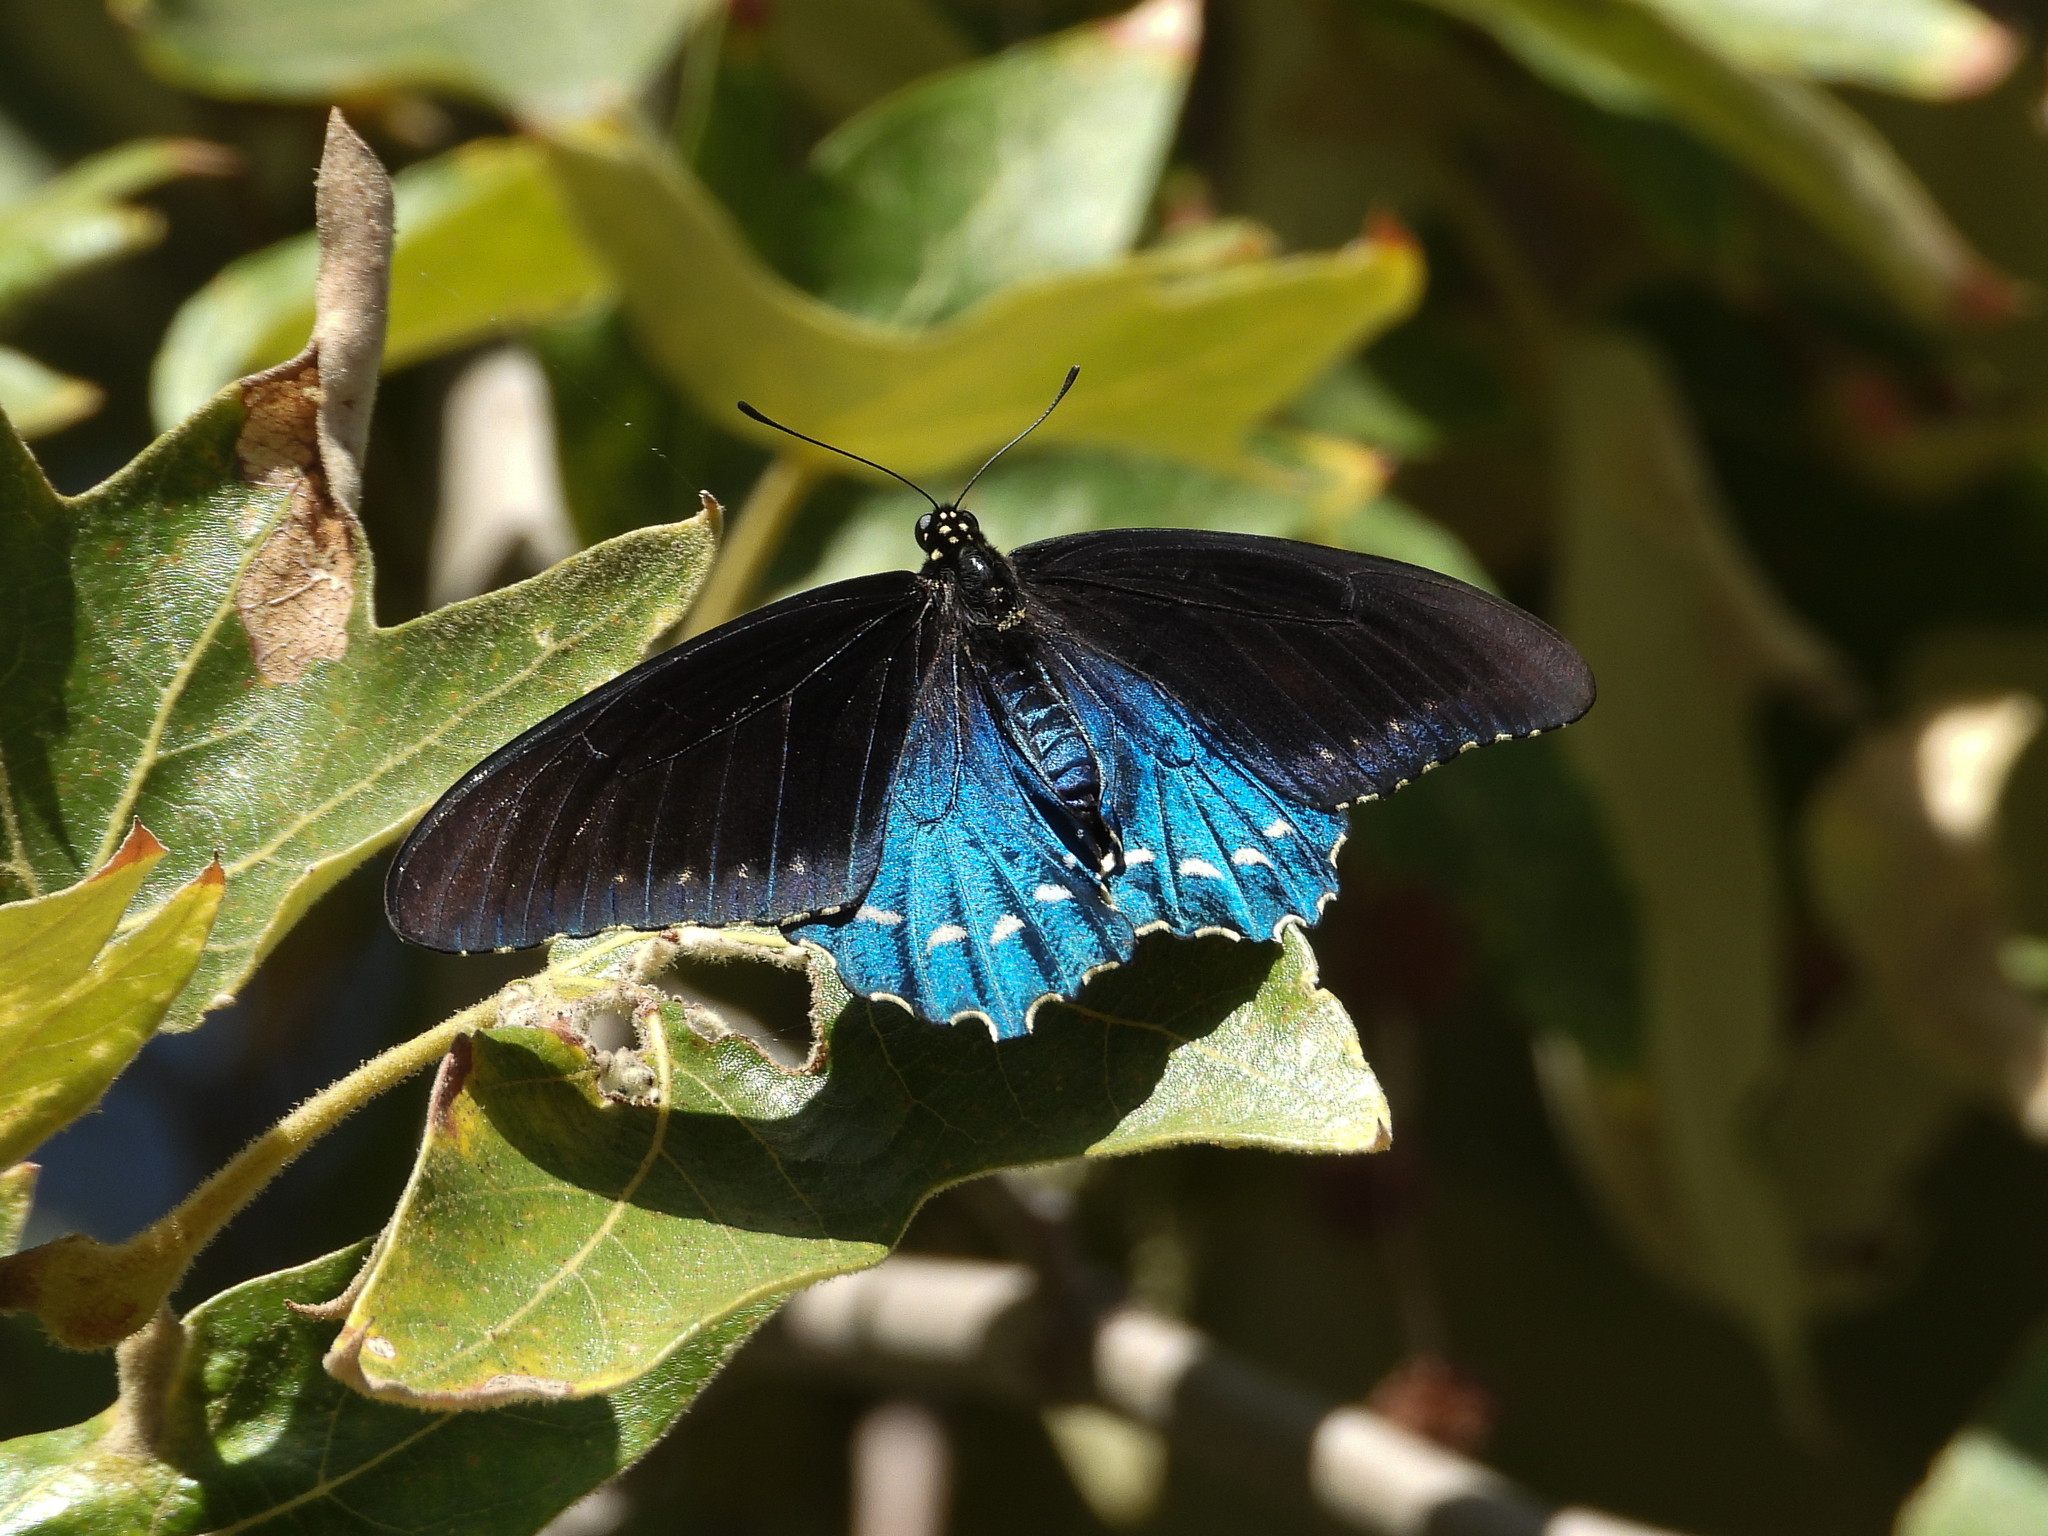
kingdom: Animalia
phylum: Arthropoda
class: Insecta
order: Lepidoptera
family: Papilionidae
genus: Battus
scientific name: Battus philenor
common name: Pipevine swallowtail
